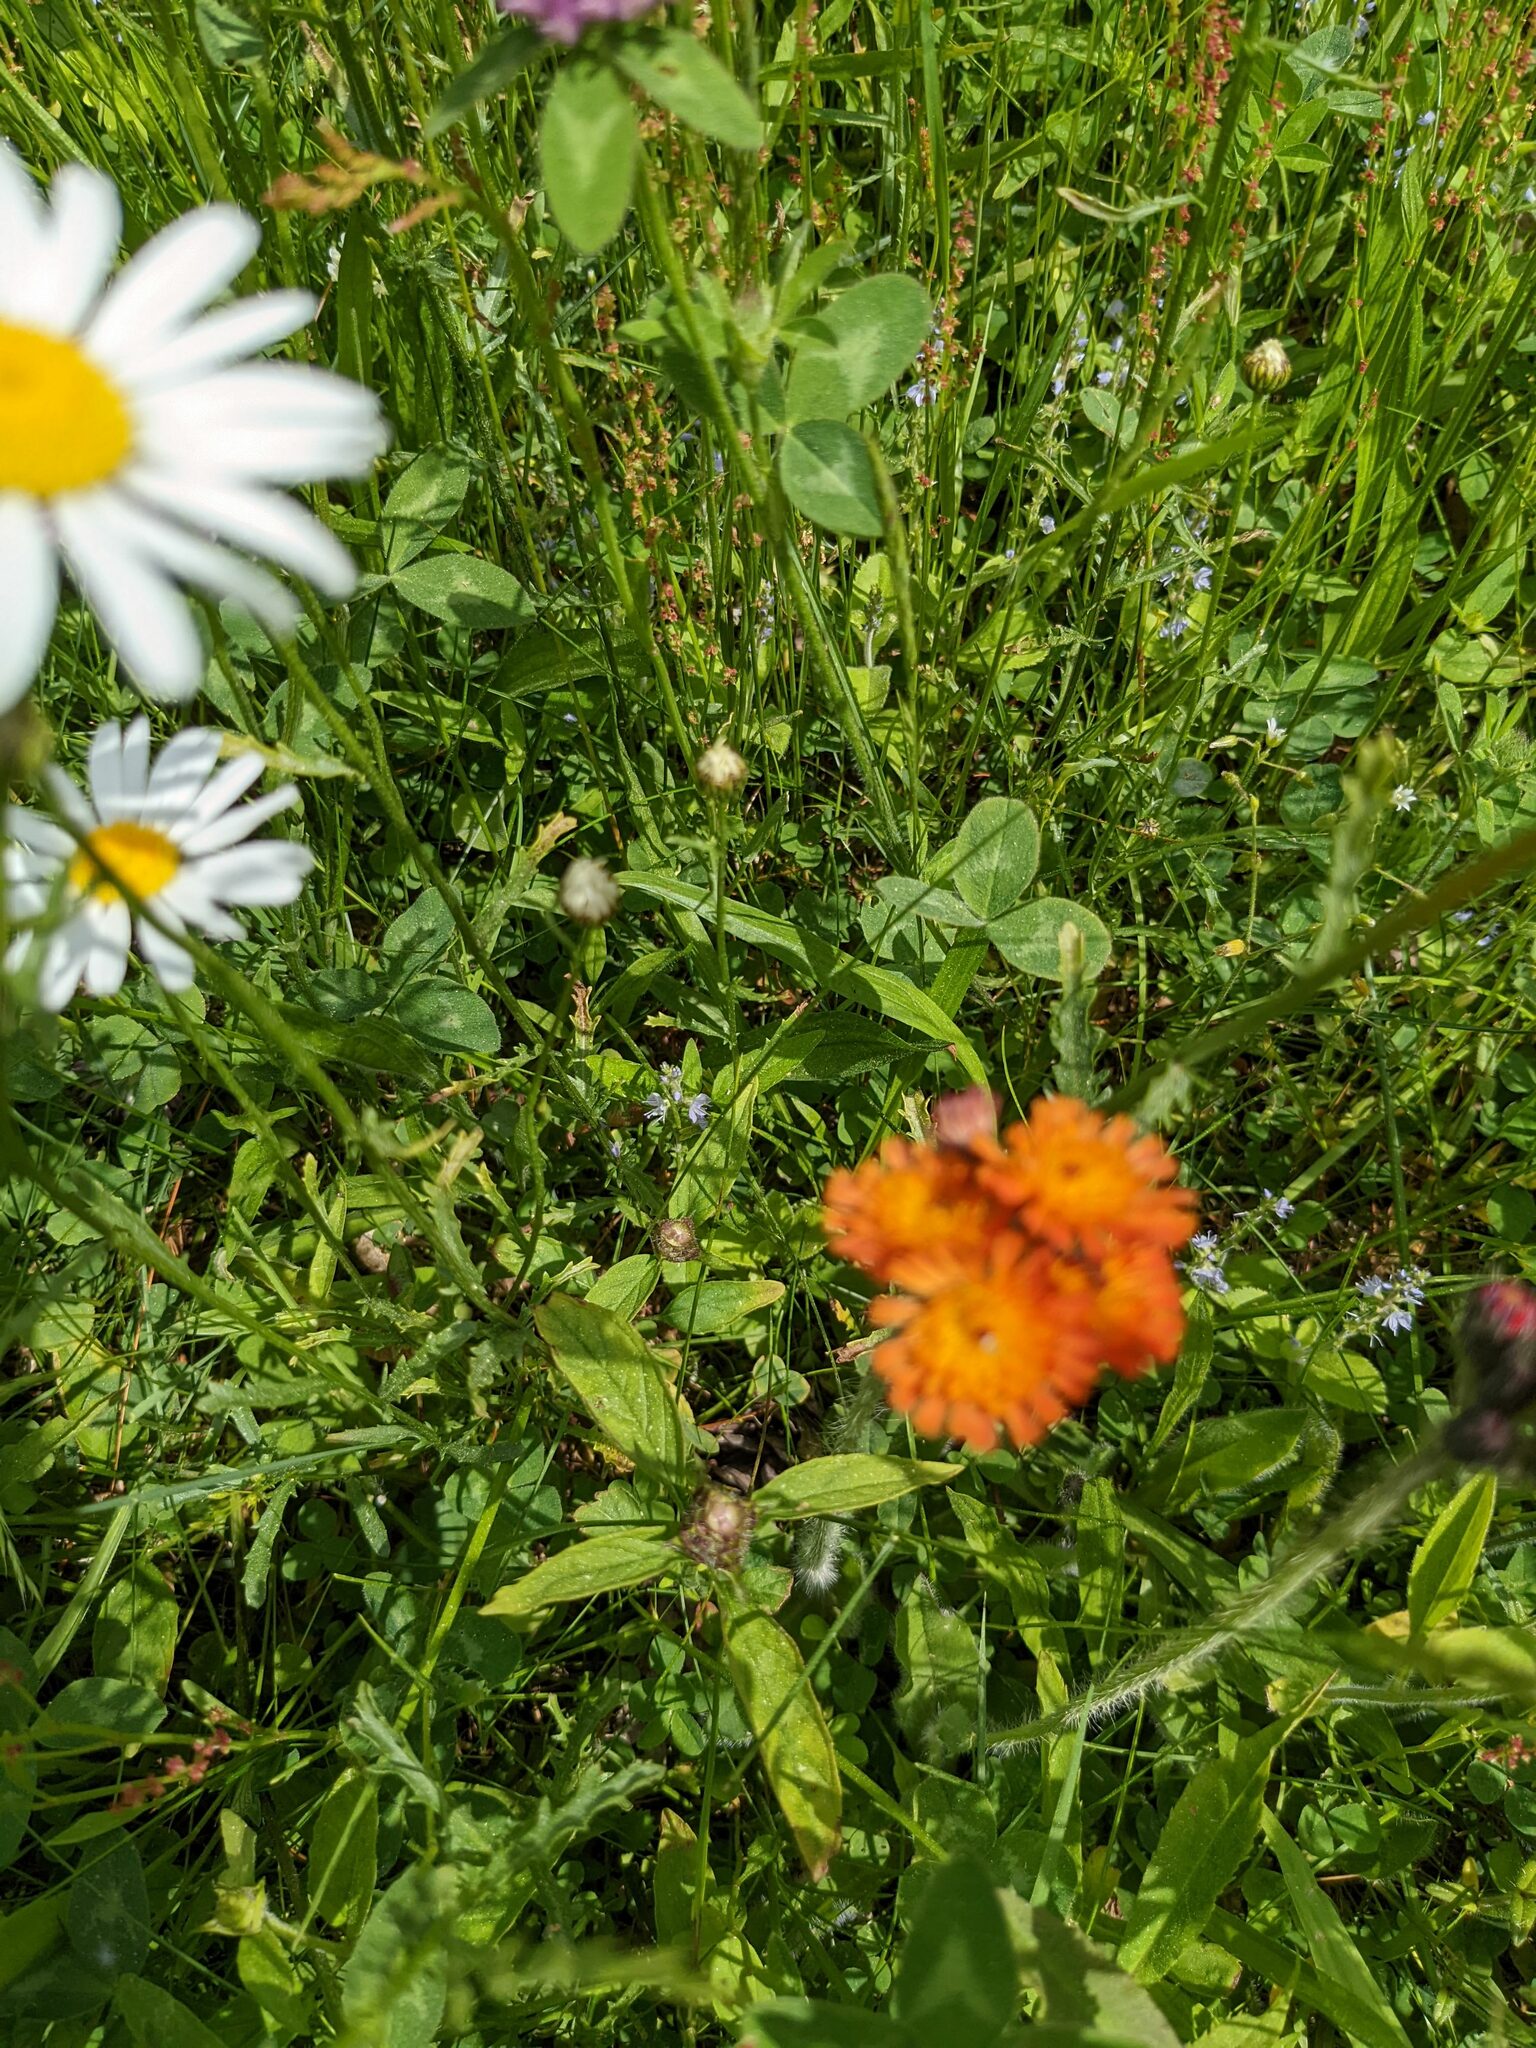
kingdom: Plantae
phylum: Tracheophyta
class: Magnoliopsida
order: Asterales
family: Asteraceae
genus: Pilosella
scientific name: Pilosella aurantiaca
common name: Fox-and-cubs
